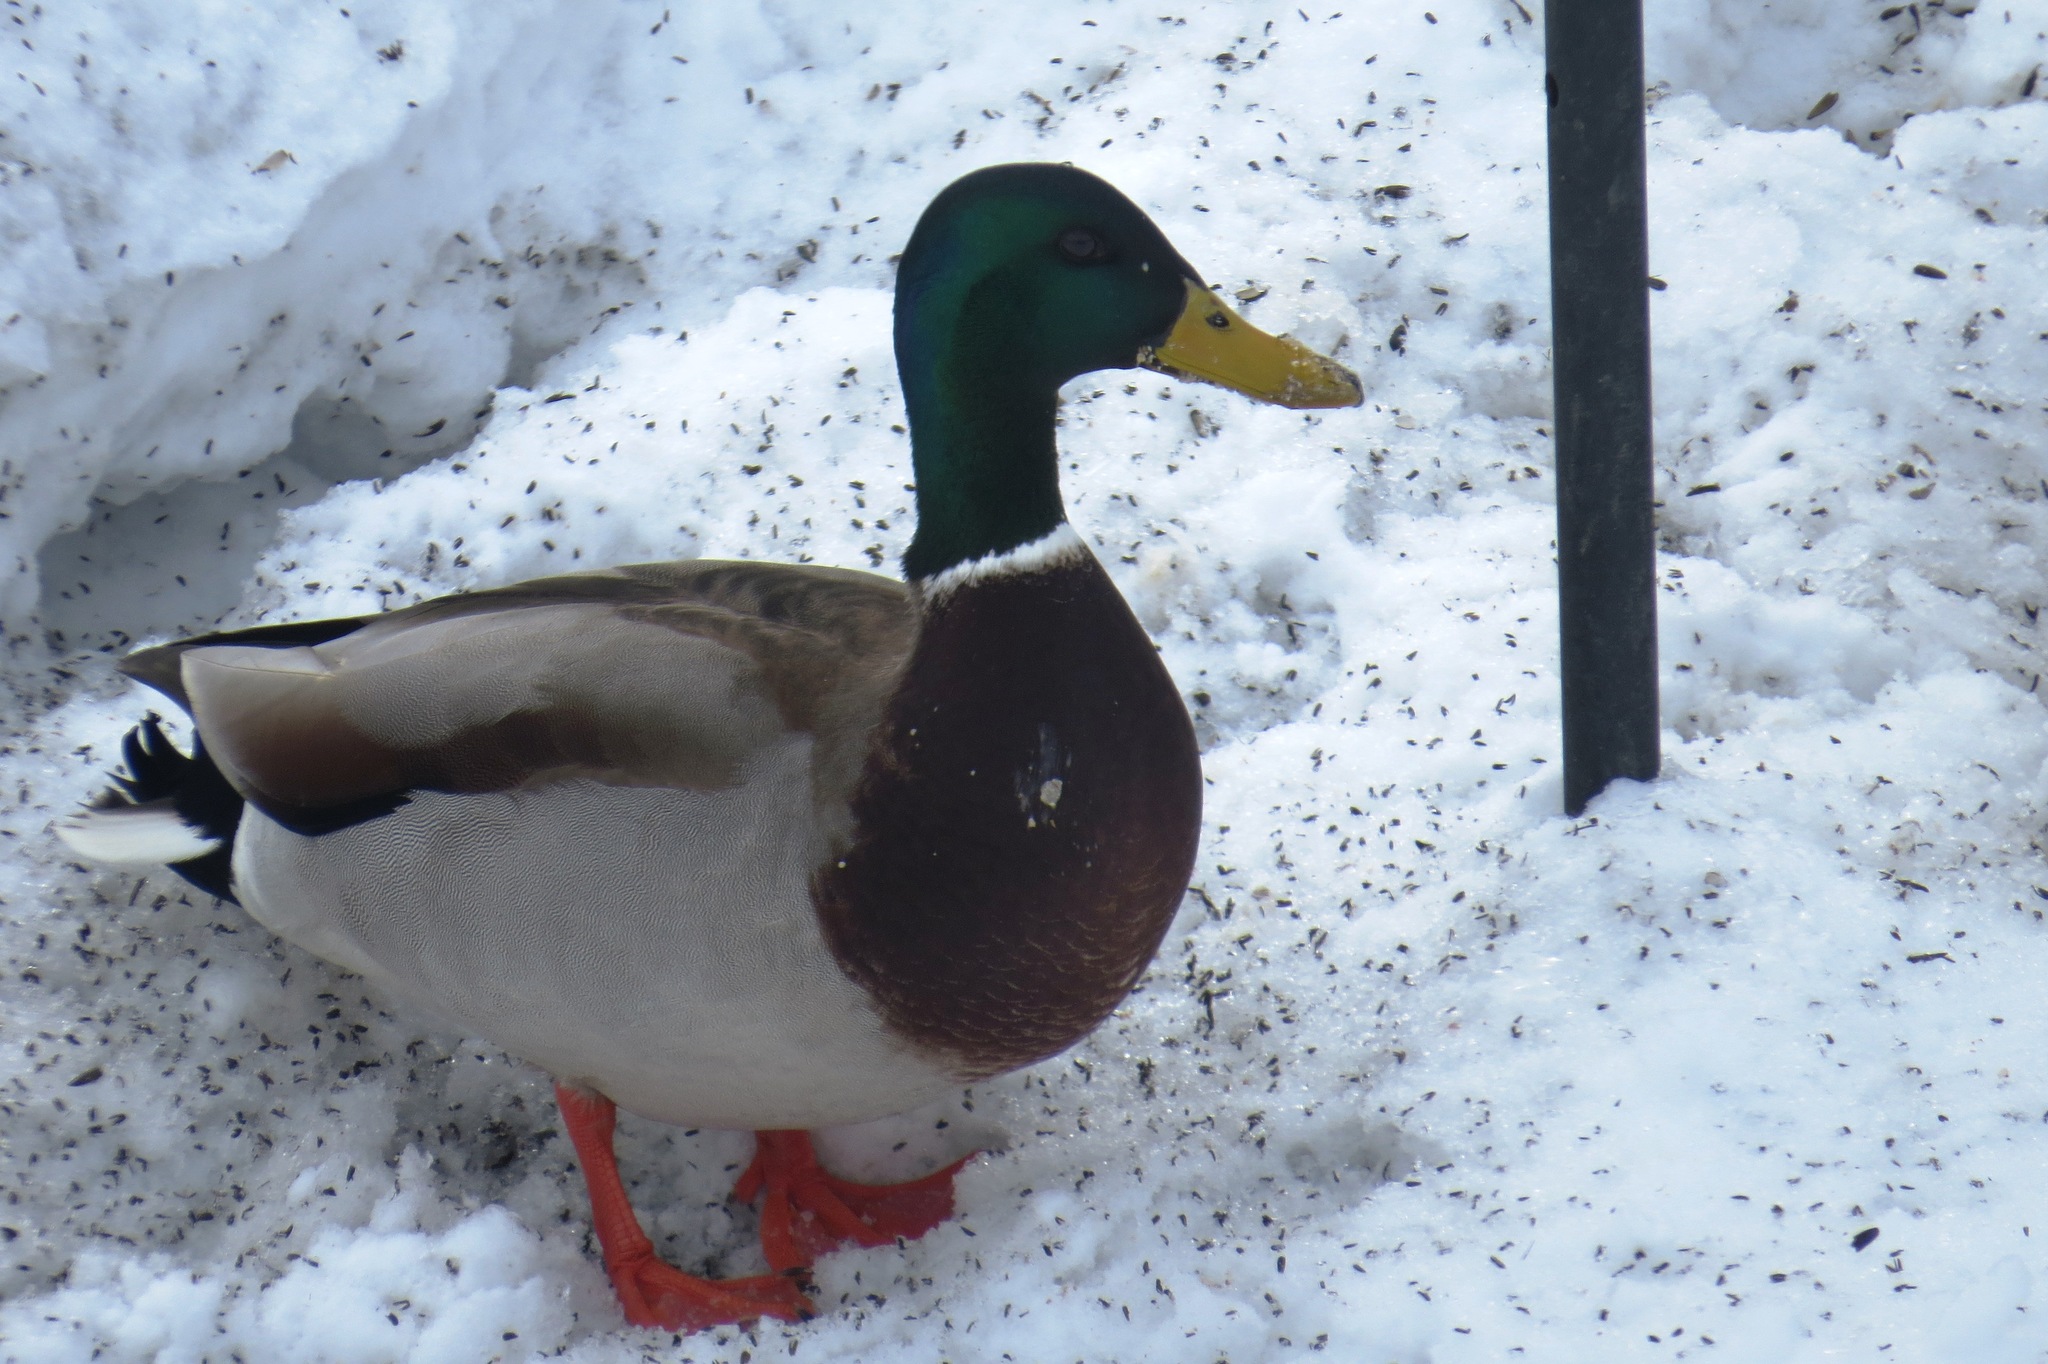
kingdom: Animalia
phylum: Chordata
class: Aves
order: Anseriformes
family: Anatidae
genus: Anas
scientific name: Anas platyrhynchos
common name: Mallard
